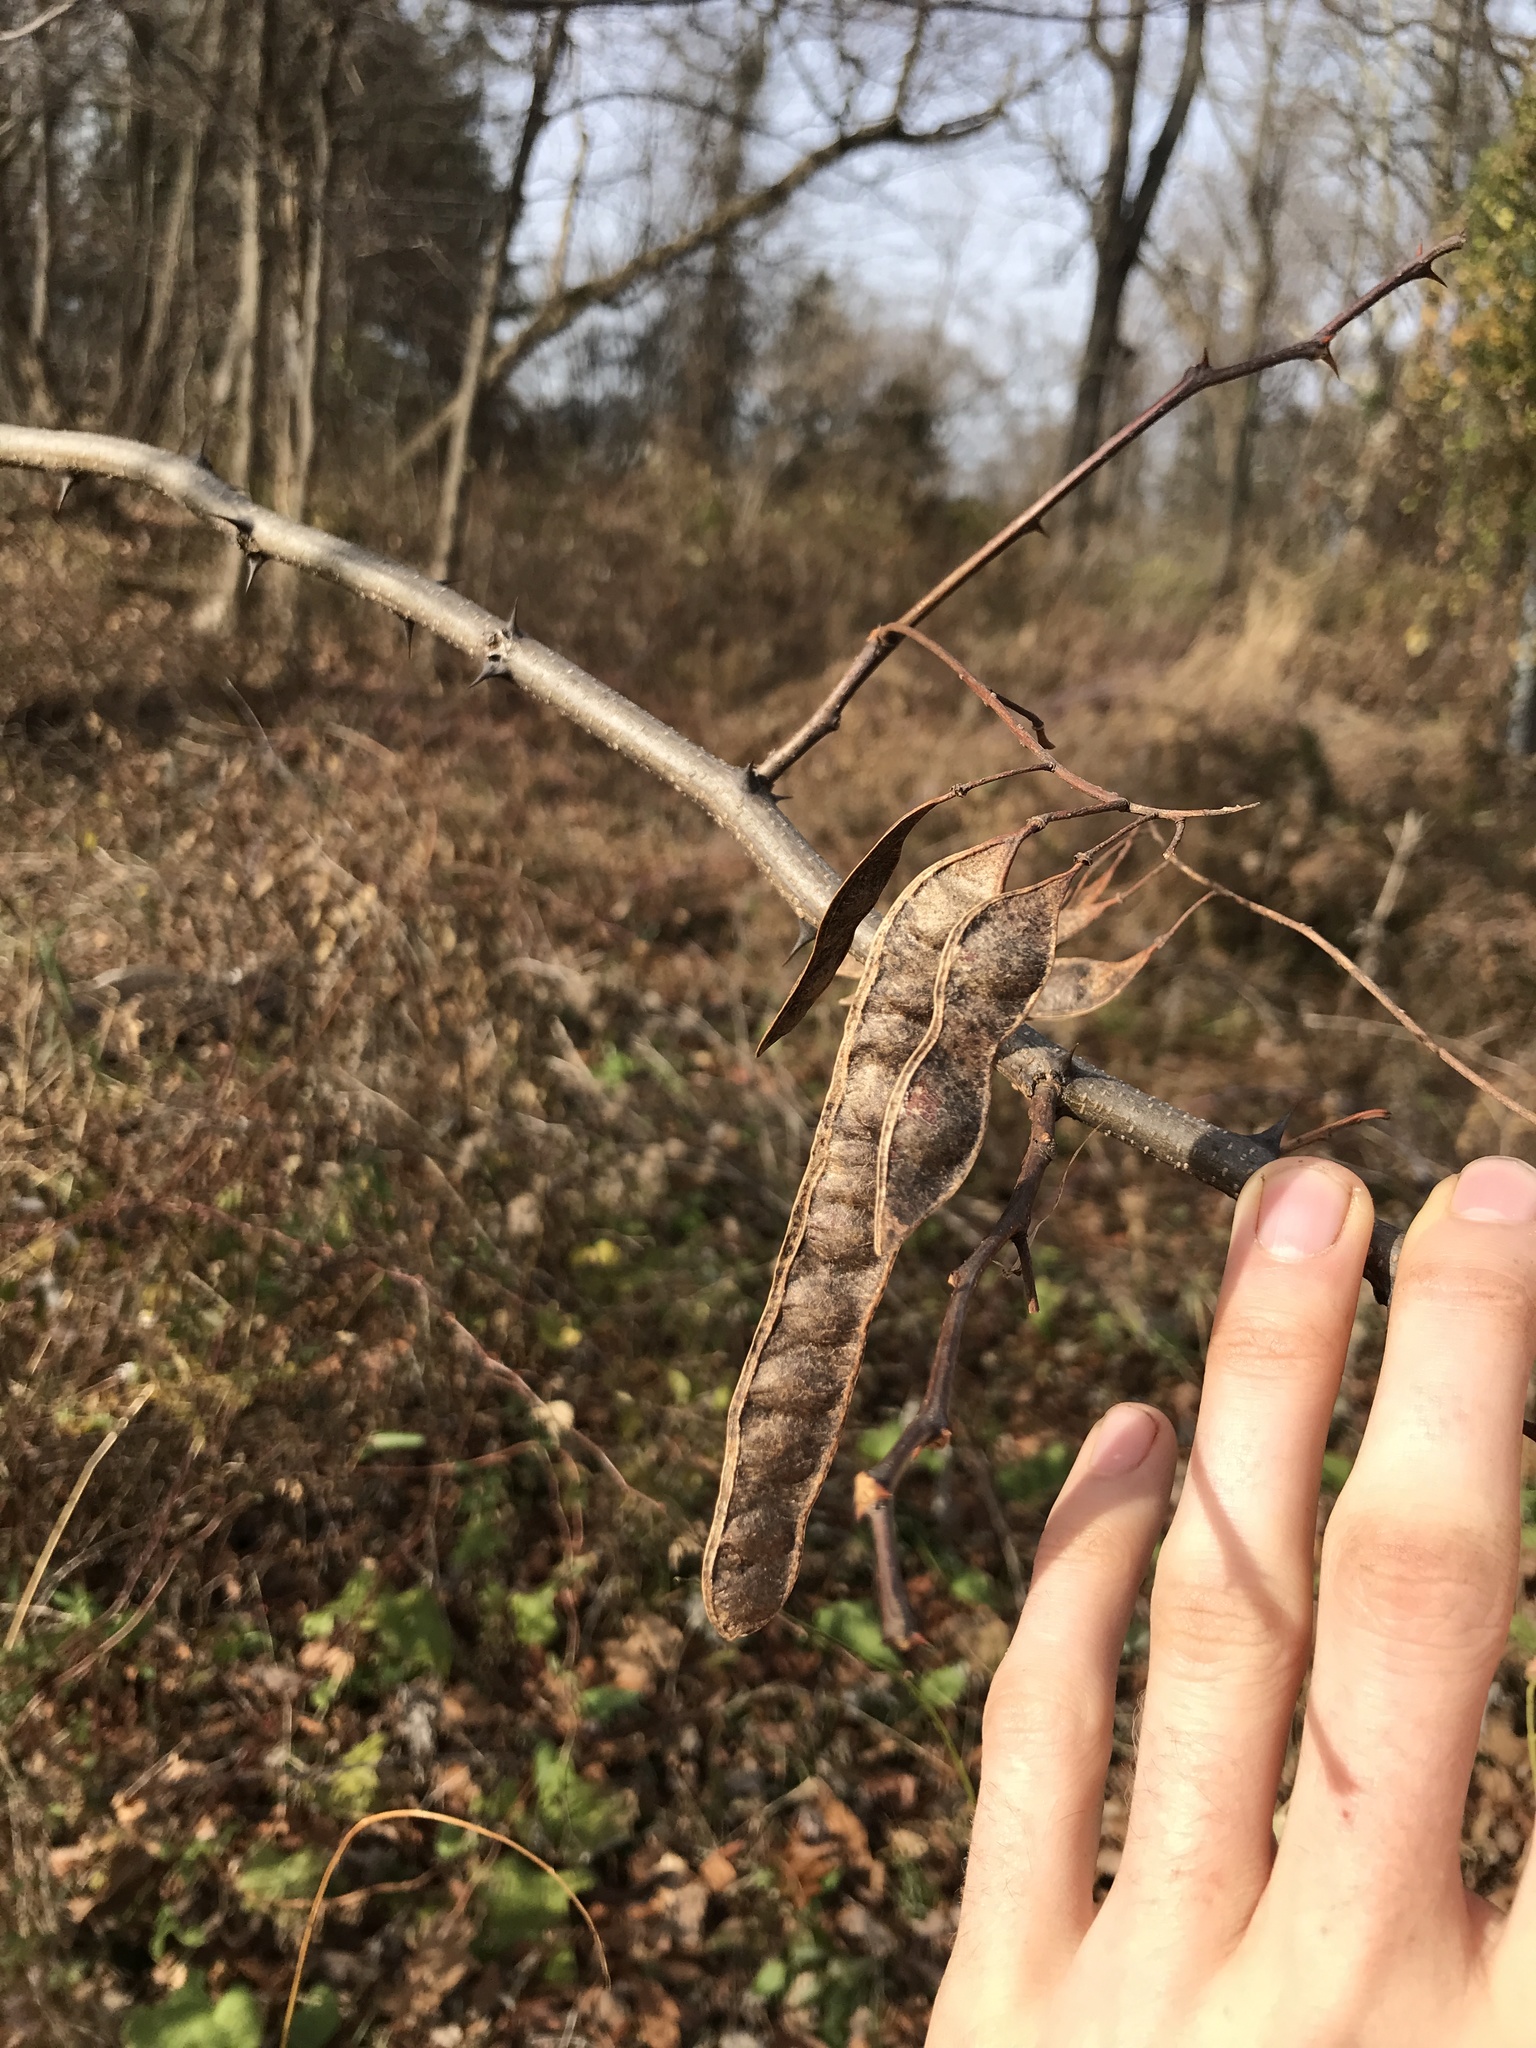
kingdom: Plantae
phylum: Tracheophyta
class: Magnoliopsida
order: Fabales
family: Fabaceae
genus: Robinia
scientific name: Robinia pseudoacacia
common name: Black locust
